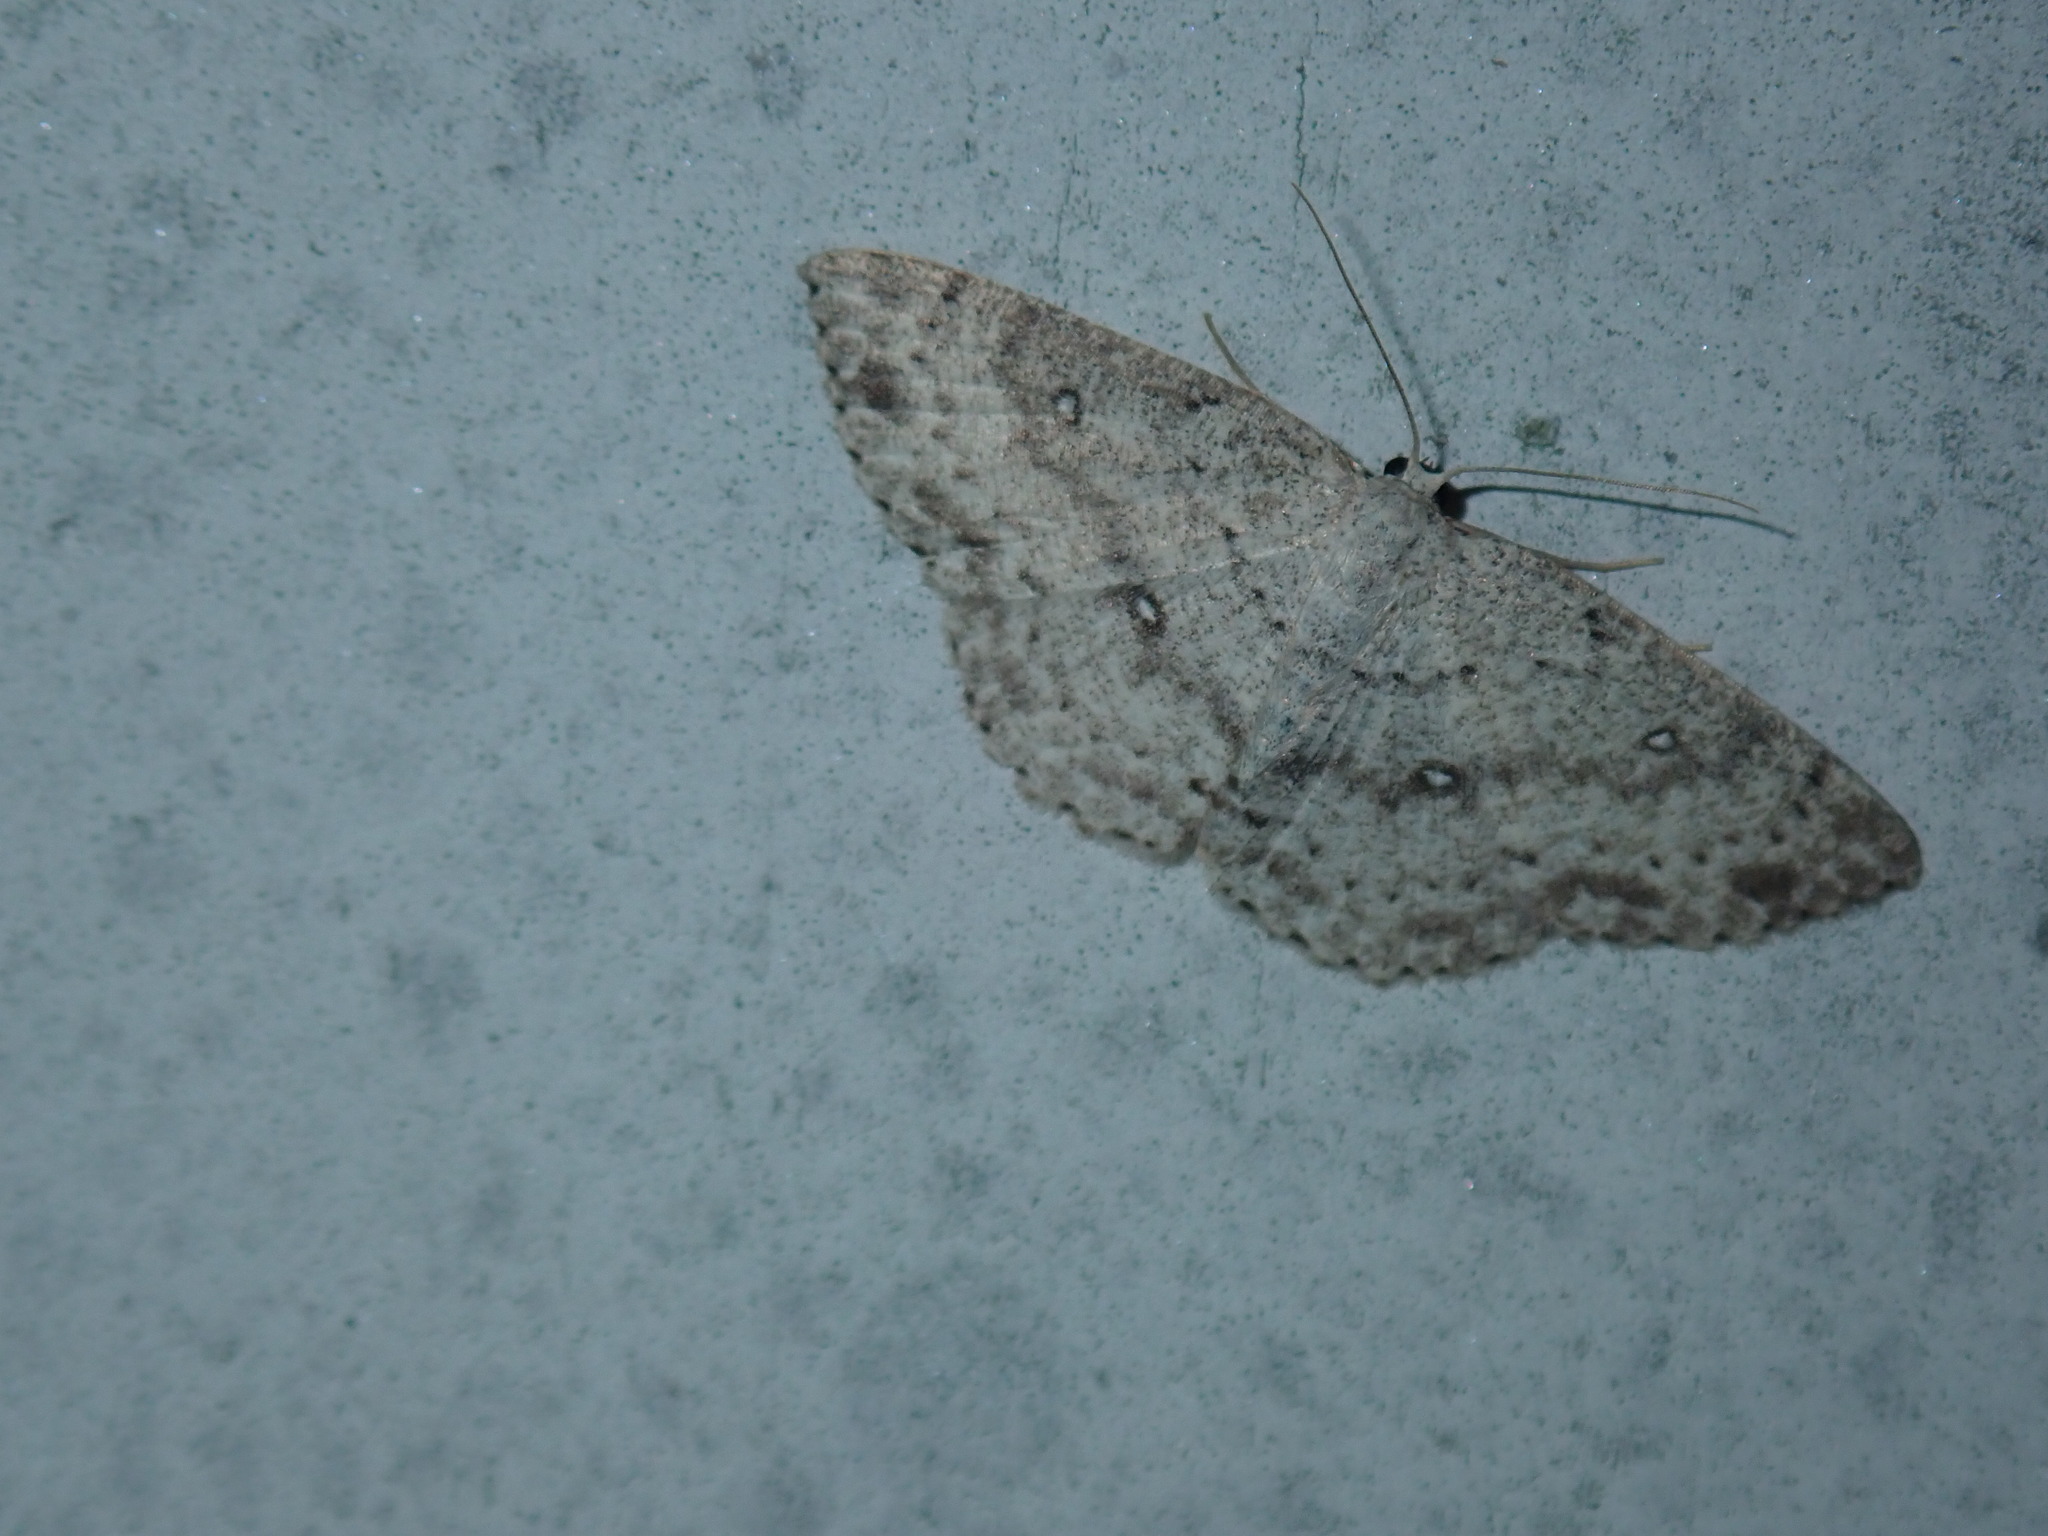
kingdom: Animalia
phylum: Arthropoda
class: Insecta
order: Lepidoptera
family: Geometridae
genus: Cyclophora
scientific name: Cyclophora pendulinaria
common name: Sweet fern geometer
